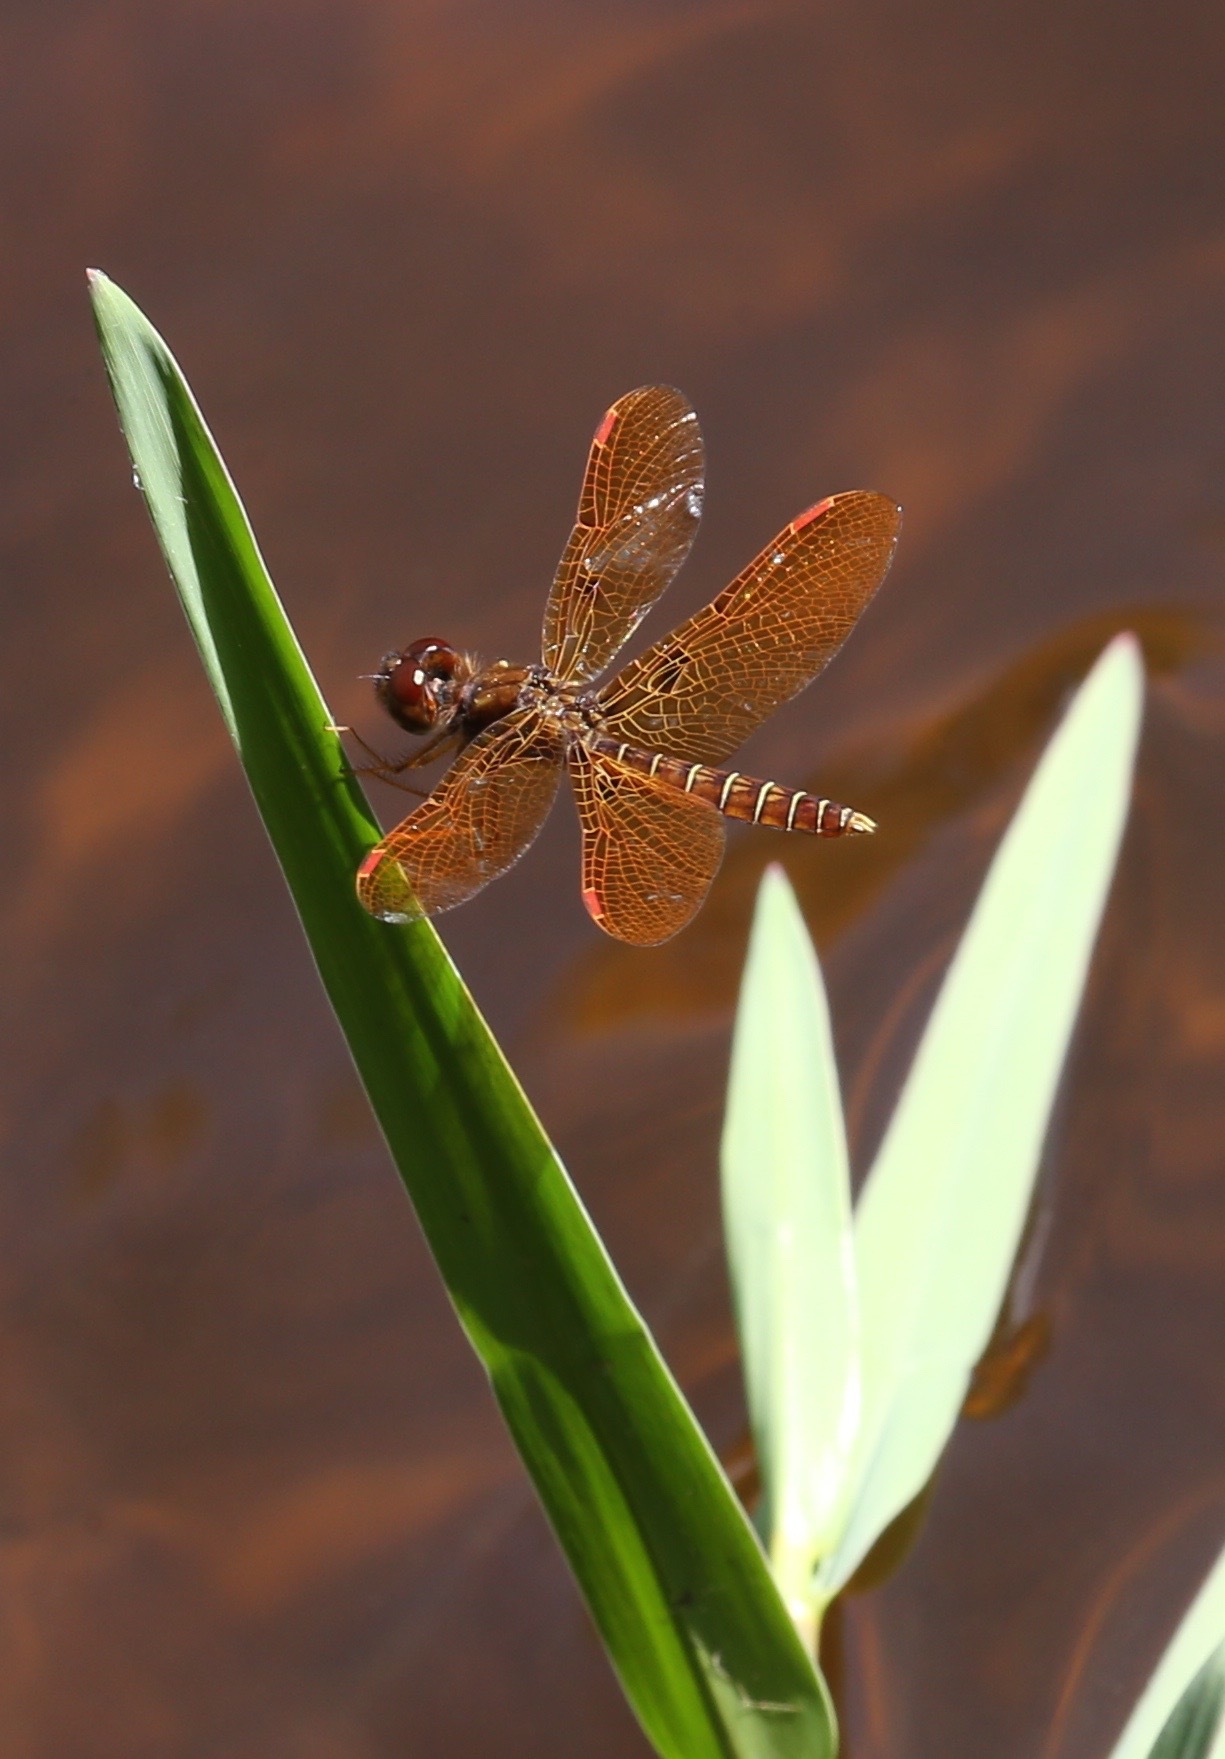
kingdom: Animalia
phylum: Arthropoda
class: Insecta
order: Odonata
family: Libellulidae
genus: Perithemis
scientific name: Perithemis tenera
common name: Eastern amberwing
